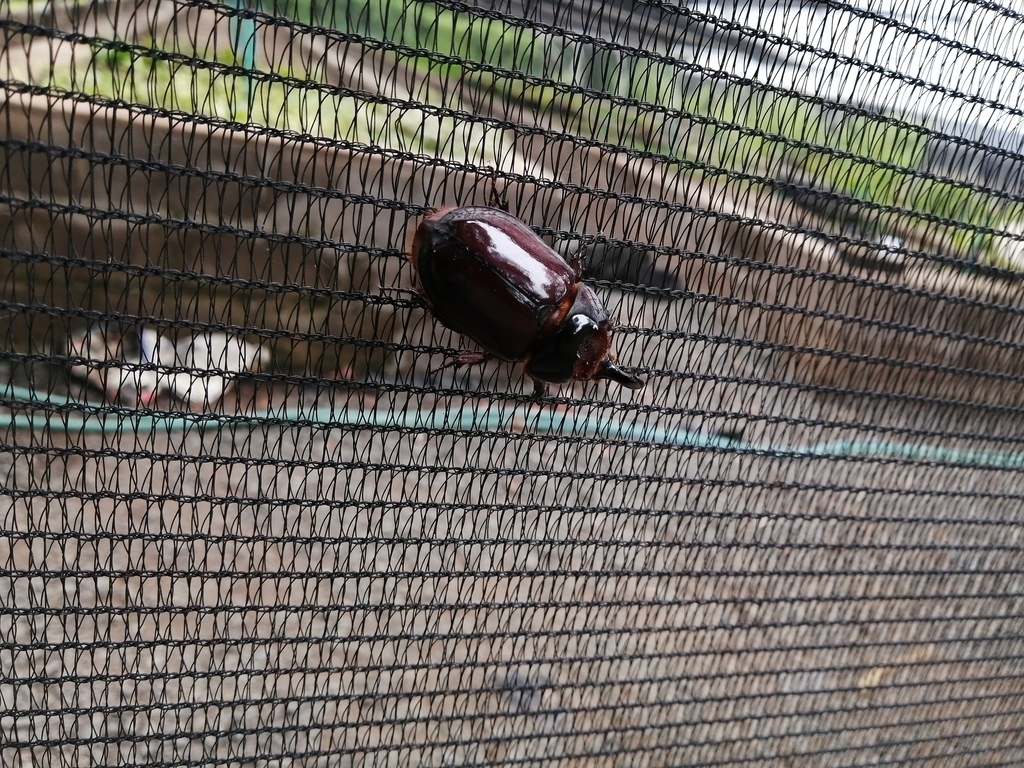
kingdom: Animalia
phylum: Arthropoda
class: Insecta
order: Coleoptera
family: Scarabaeidae
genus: Oryctes
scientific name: Oryctes boas
